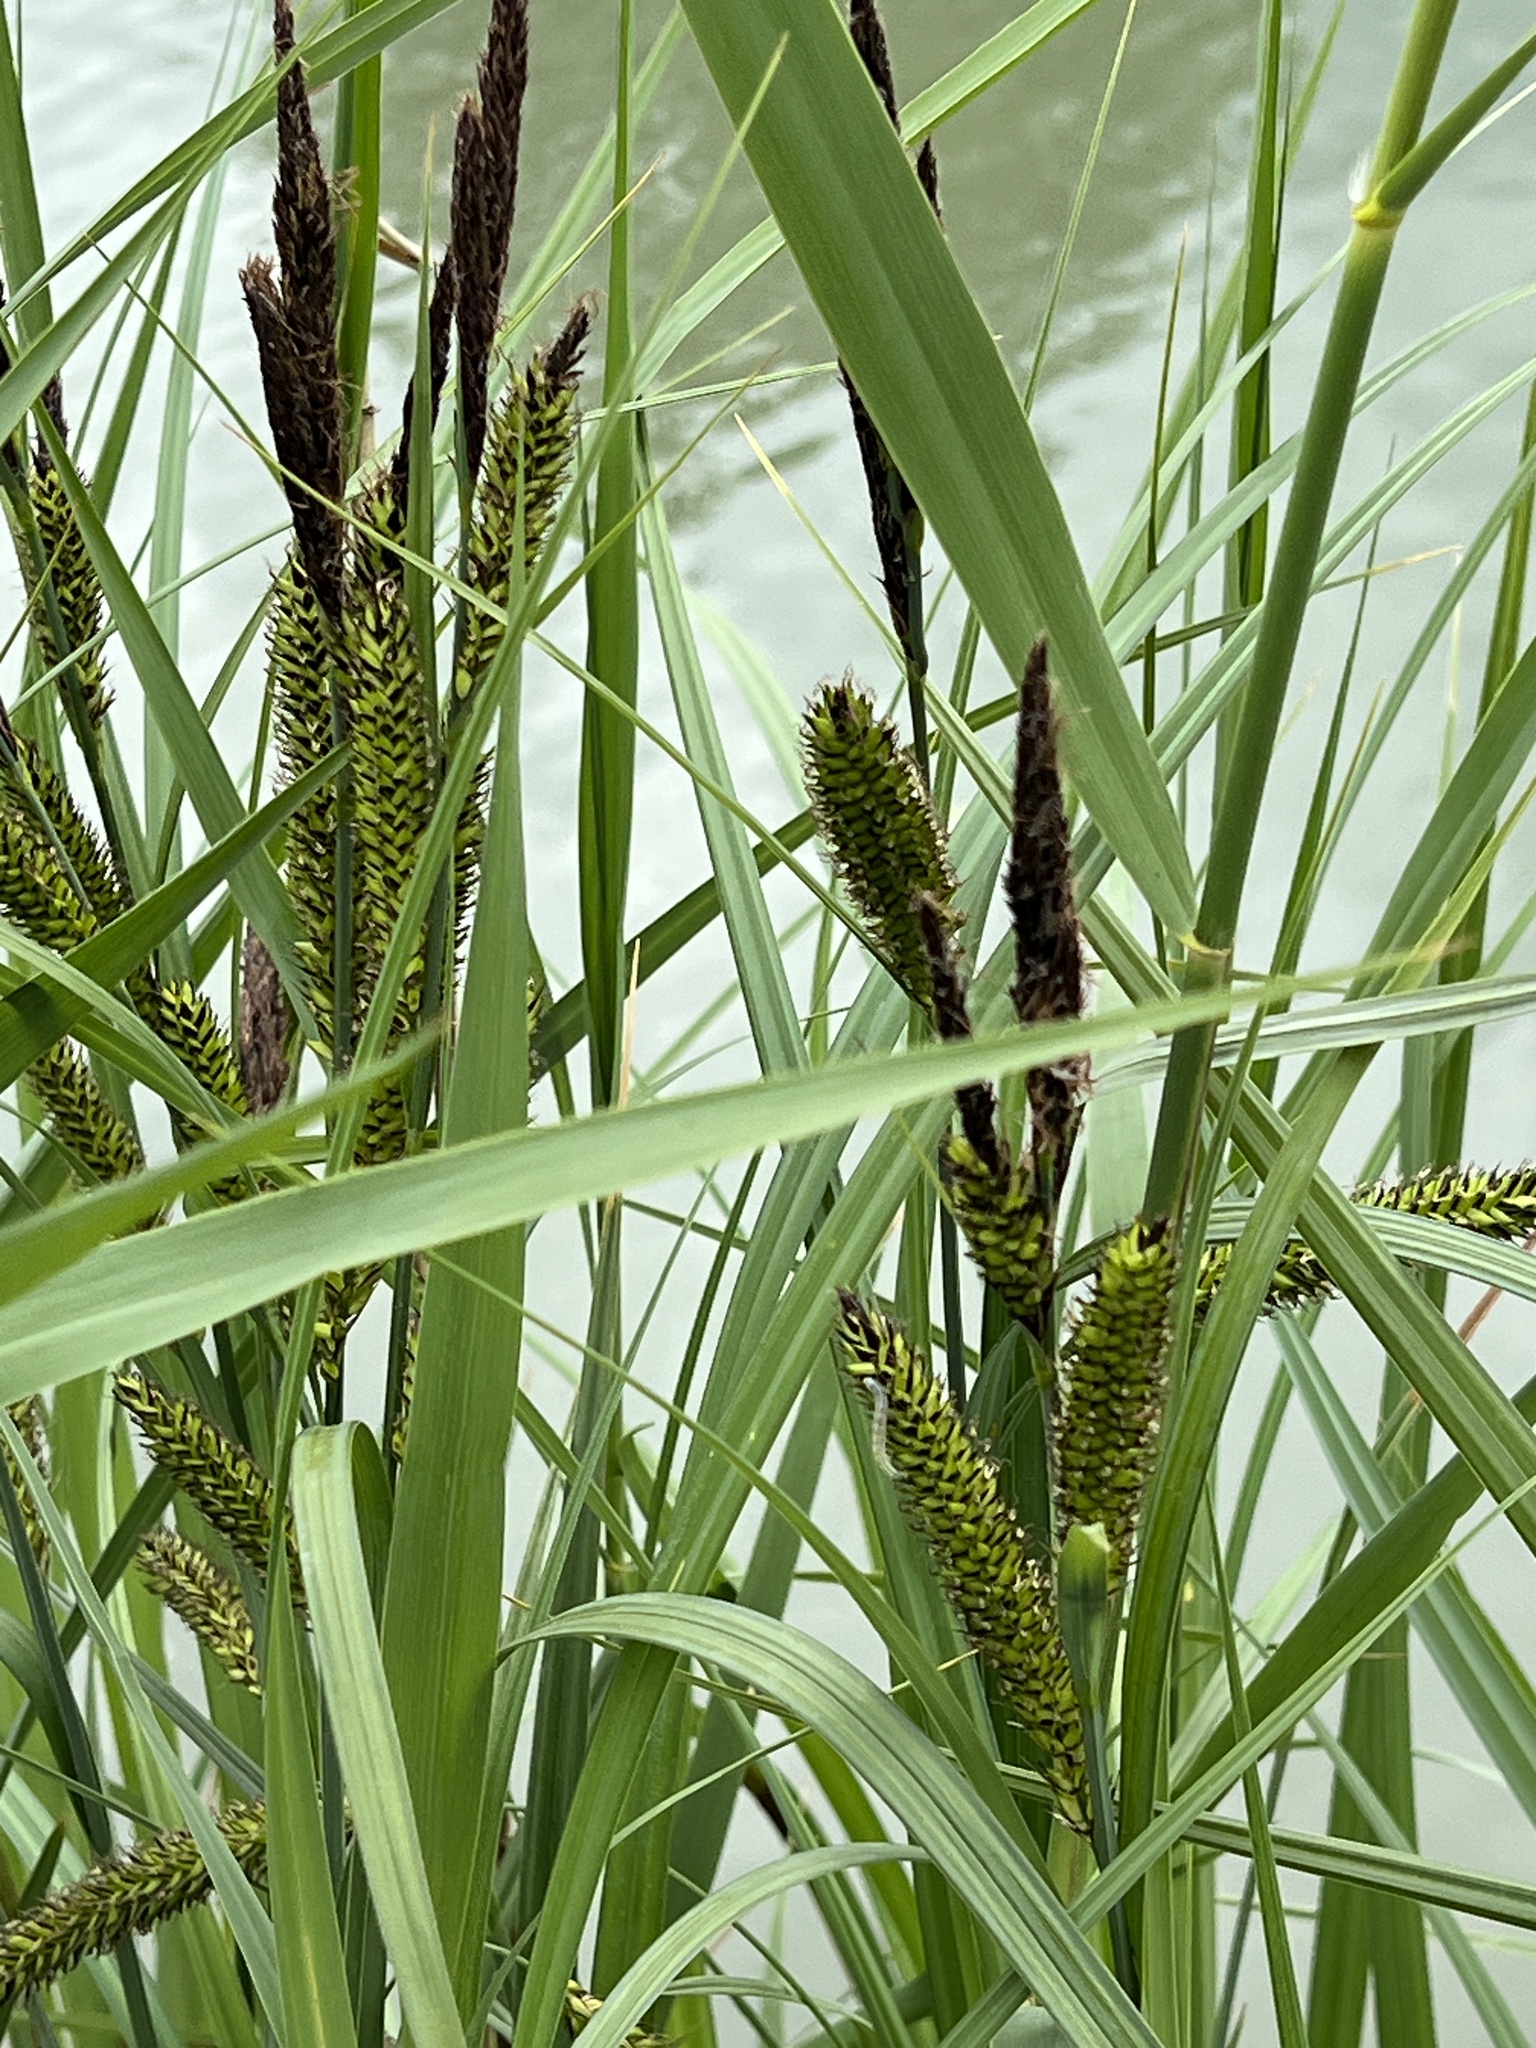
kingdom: Plantae
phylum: Tracheophyta
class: Liliopsida
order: Poales
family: Cyperaceae
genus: Carex
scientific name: Carex riparia
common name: Greater pond-sedge
